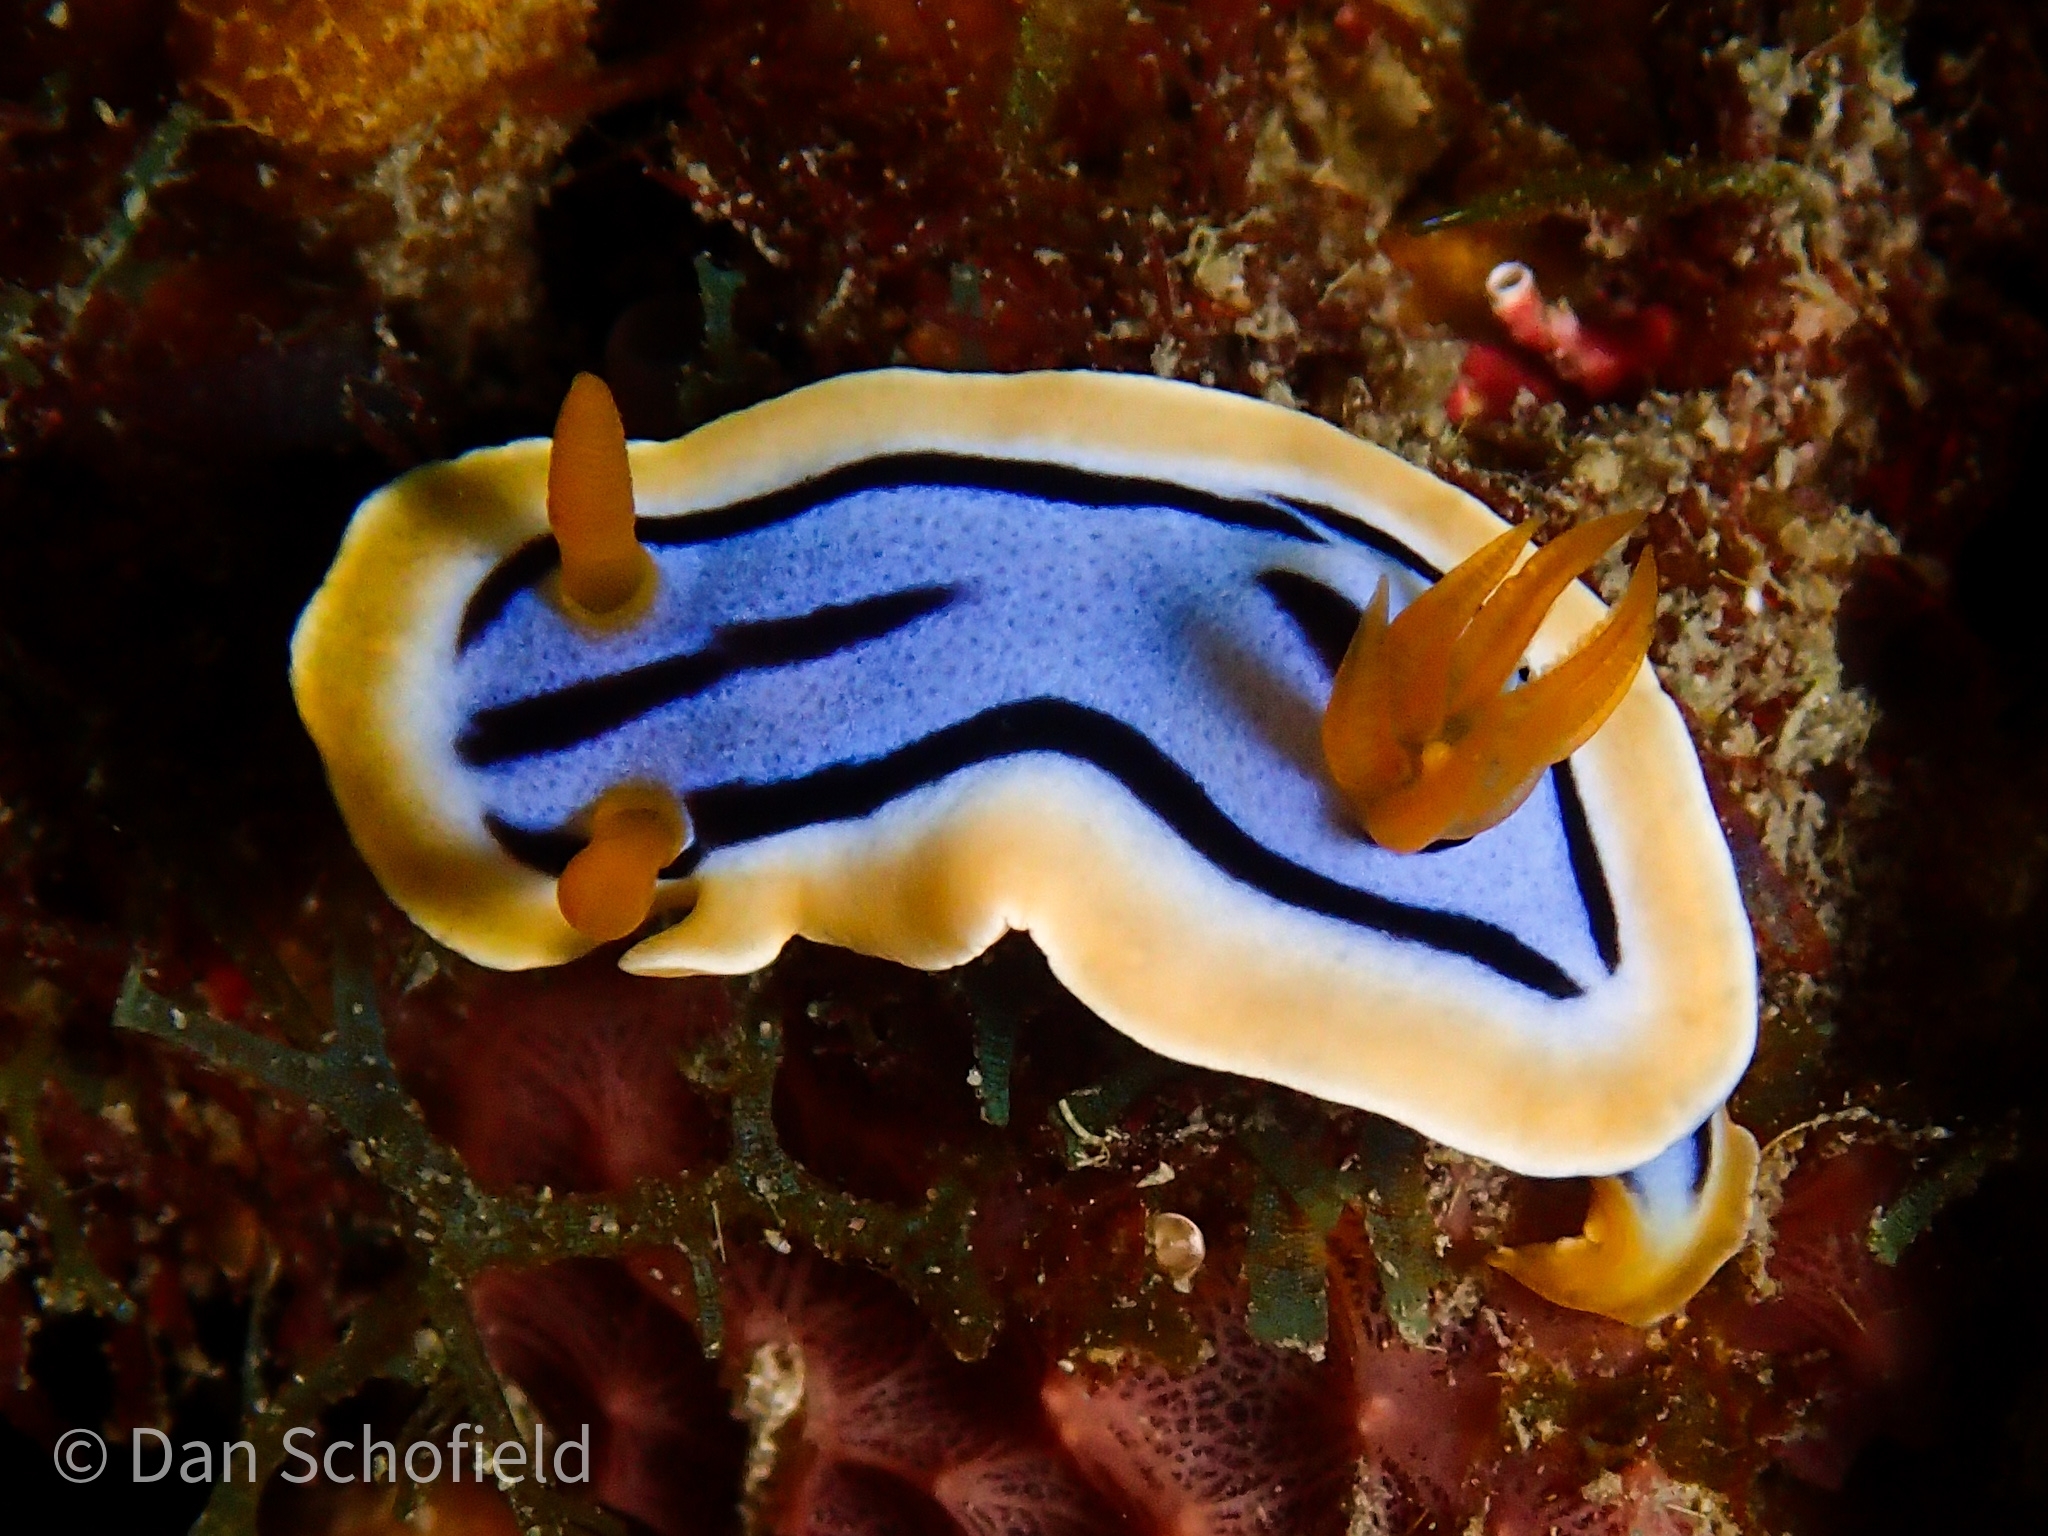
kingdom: Animalia
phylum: Mollusca
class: Gastropoda
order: Nudibranchia
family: Chromodorididae
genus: Chromodoris
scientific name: Chromodoris annae
